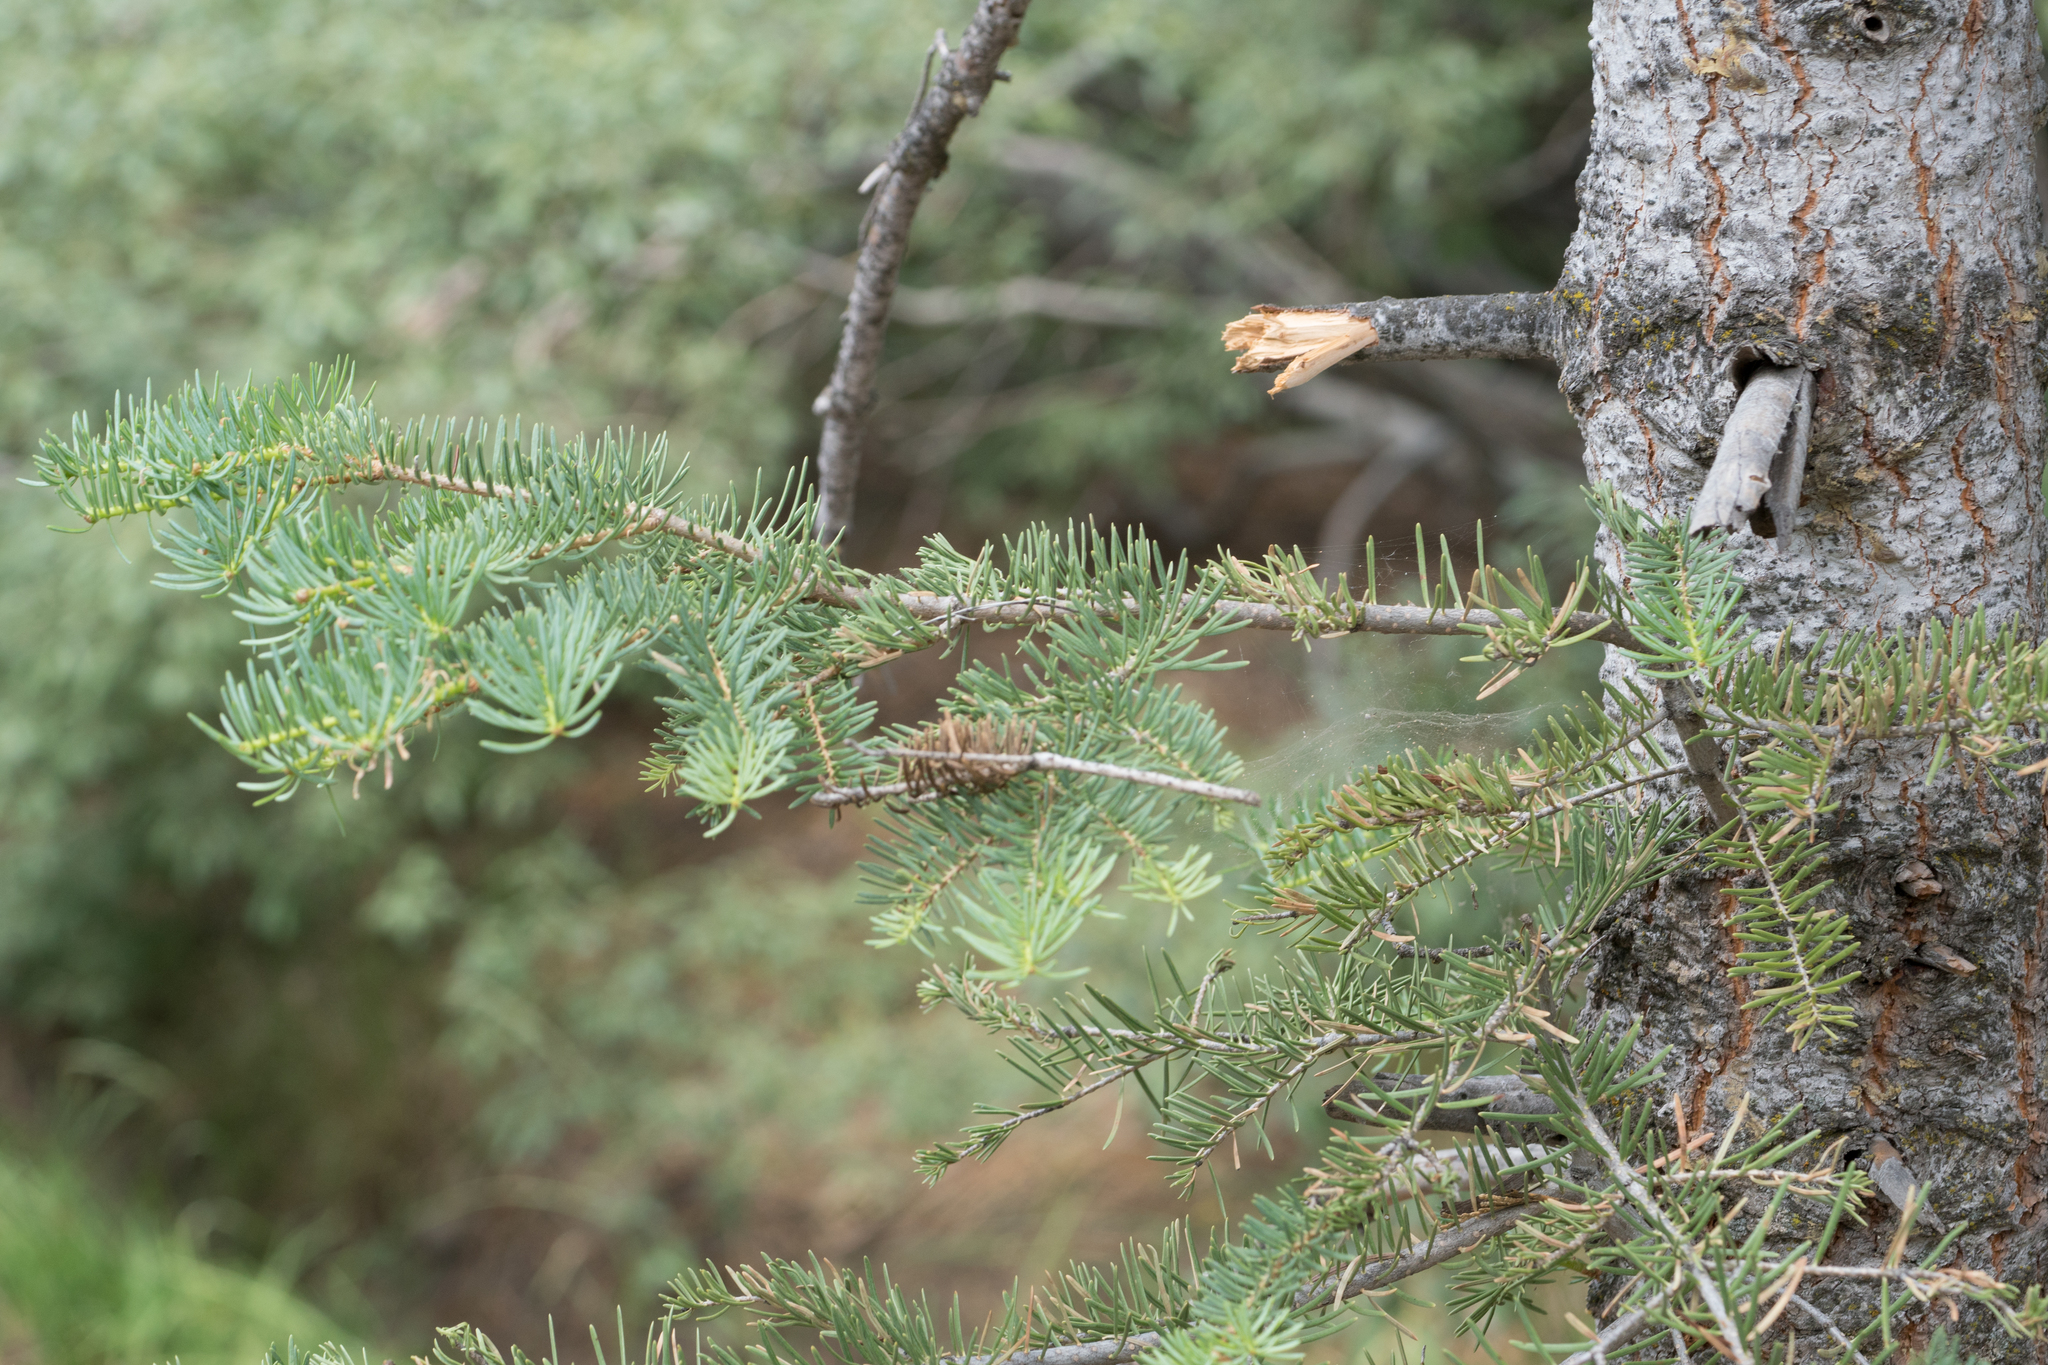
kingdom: Plantae
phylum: Tracheophyta
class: Pinopsida
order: Pinales
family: Pinaceae
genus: Abies
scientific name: Abies concolor
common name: Colorado fir
